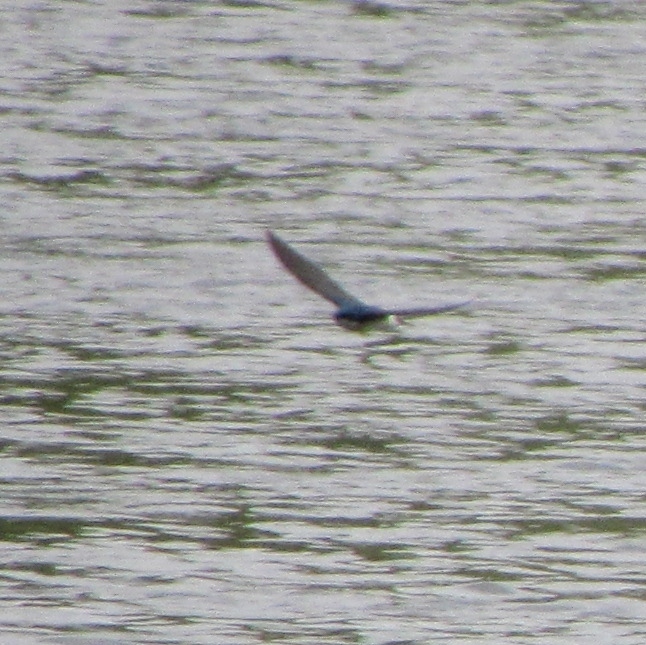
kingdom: Animalia
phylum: Chordata
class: Aves
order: Passeriformes
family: Hirundinidae
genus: Tachycineta
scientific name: Tachycineta bicolor
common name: Tree swallow
